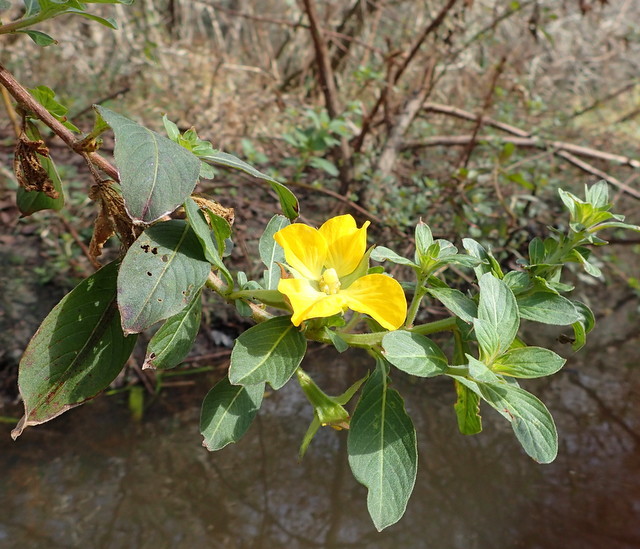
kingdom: Plantae
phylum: Tracheophyta
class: Magnoliopsida
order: Myrtales
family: Onagraceae
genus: Ludwigia
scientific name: Ludwigia peruviana
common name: Peruvian primrose-willow
